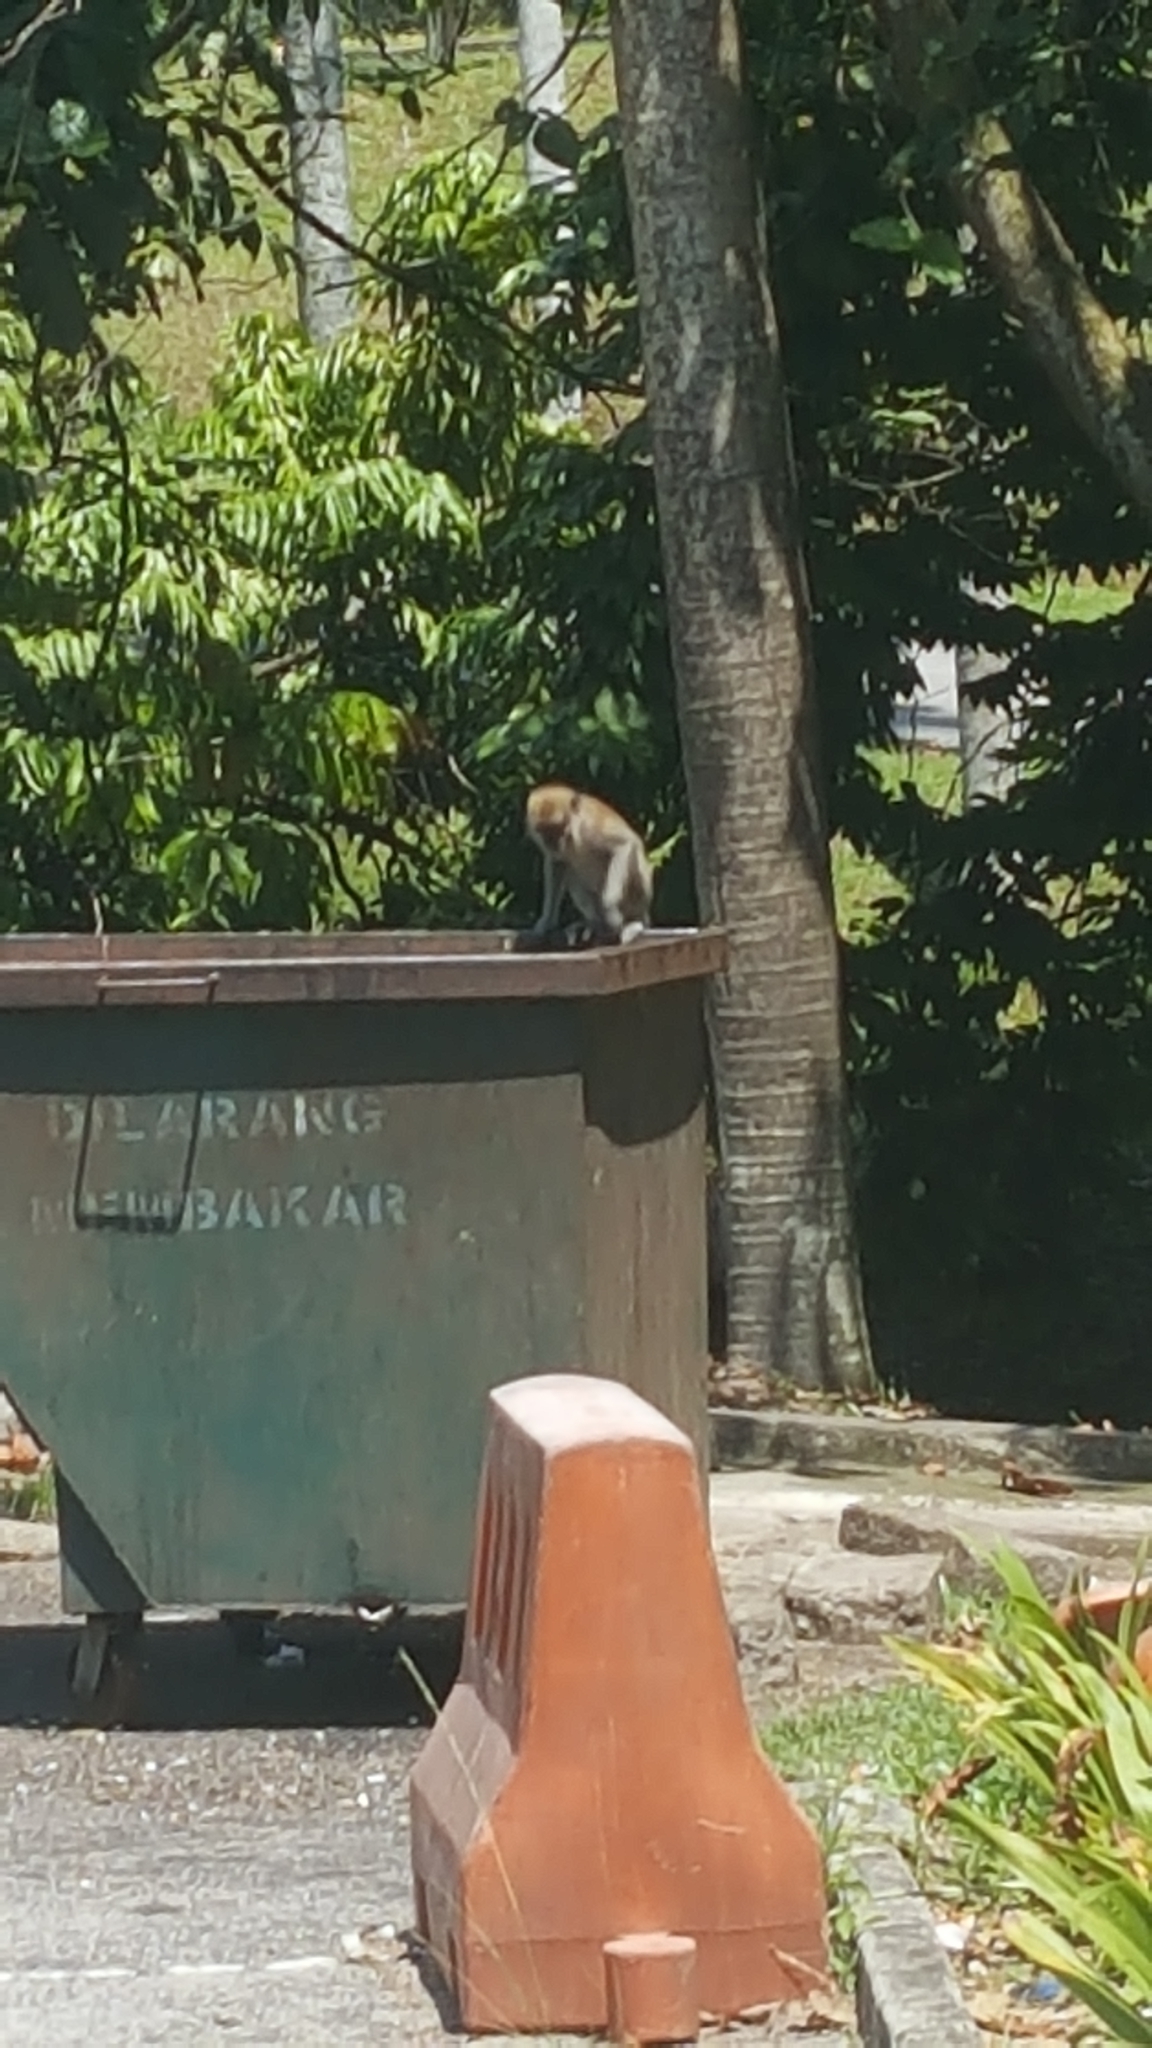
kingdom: Animalia
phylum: Chordata
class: Mammalia
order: Primates
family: Cercopithecidae
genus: Macaca
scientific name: Macaca fascicularis
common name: Crab-eating macaque
